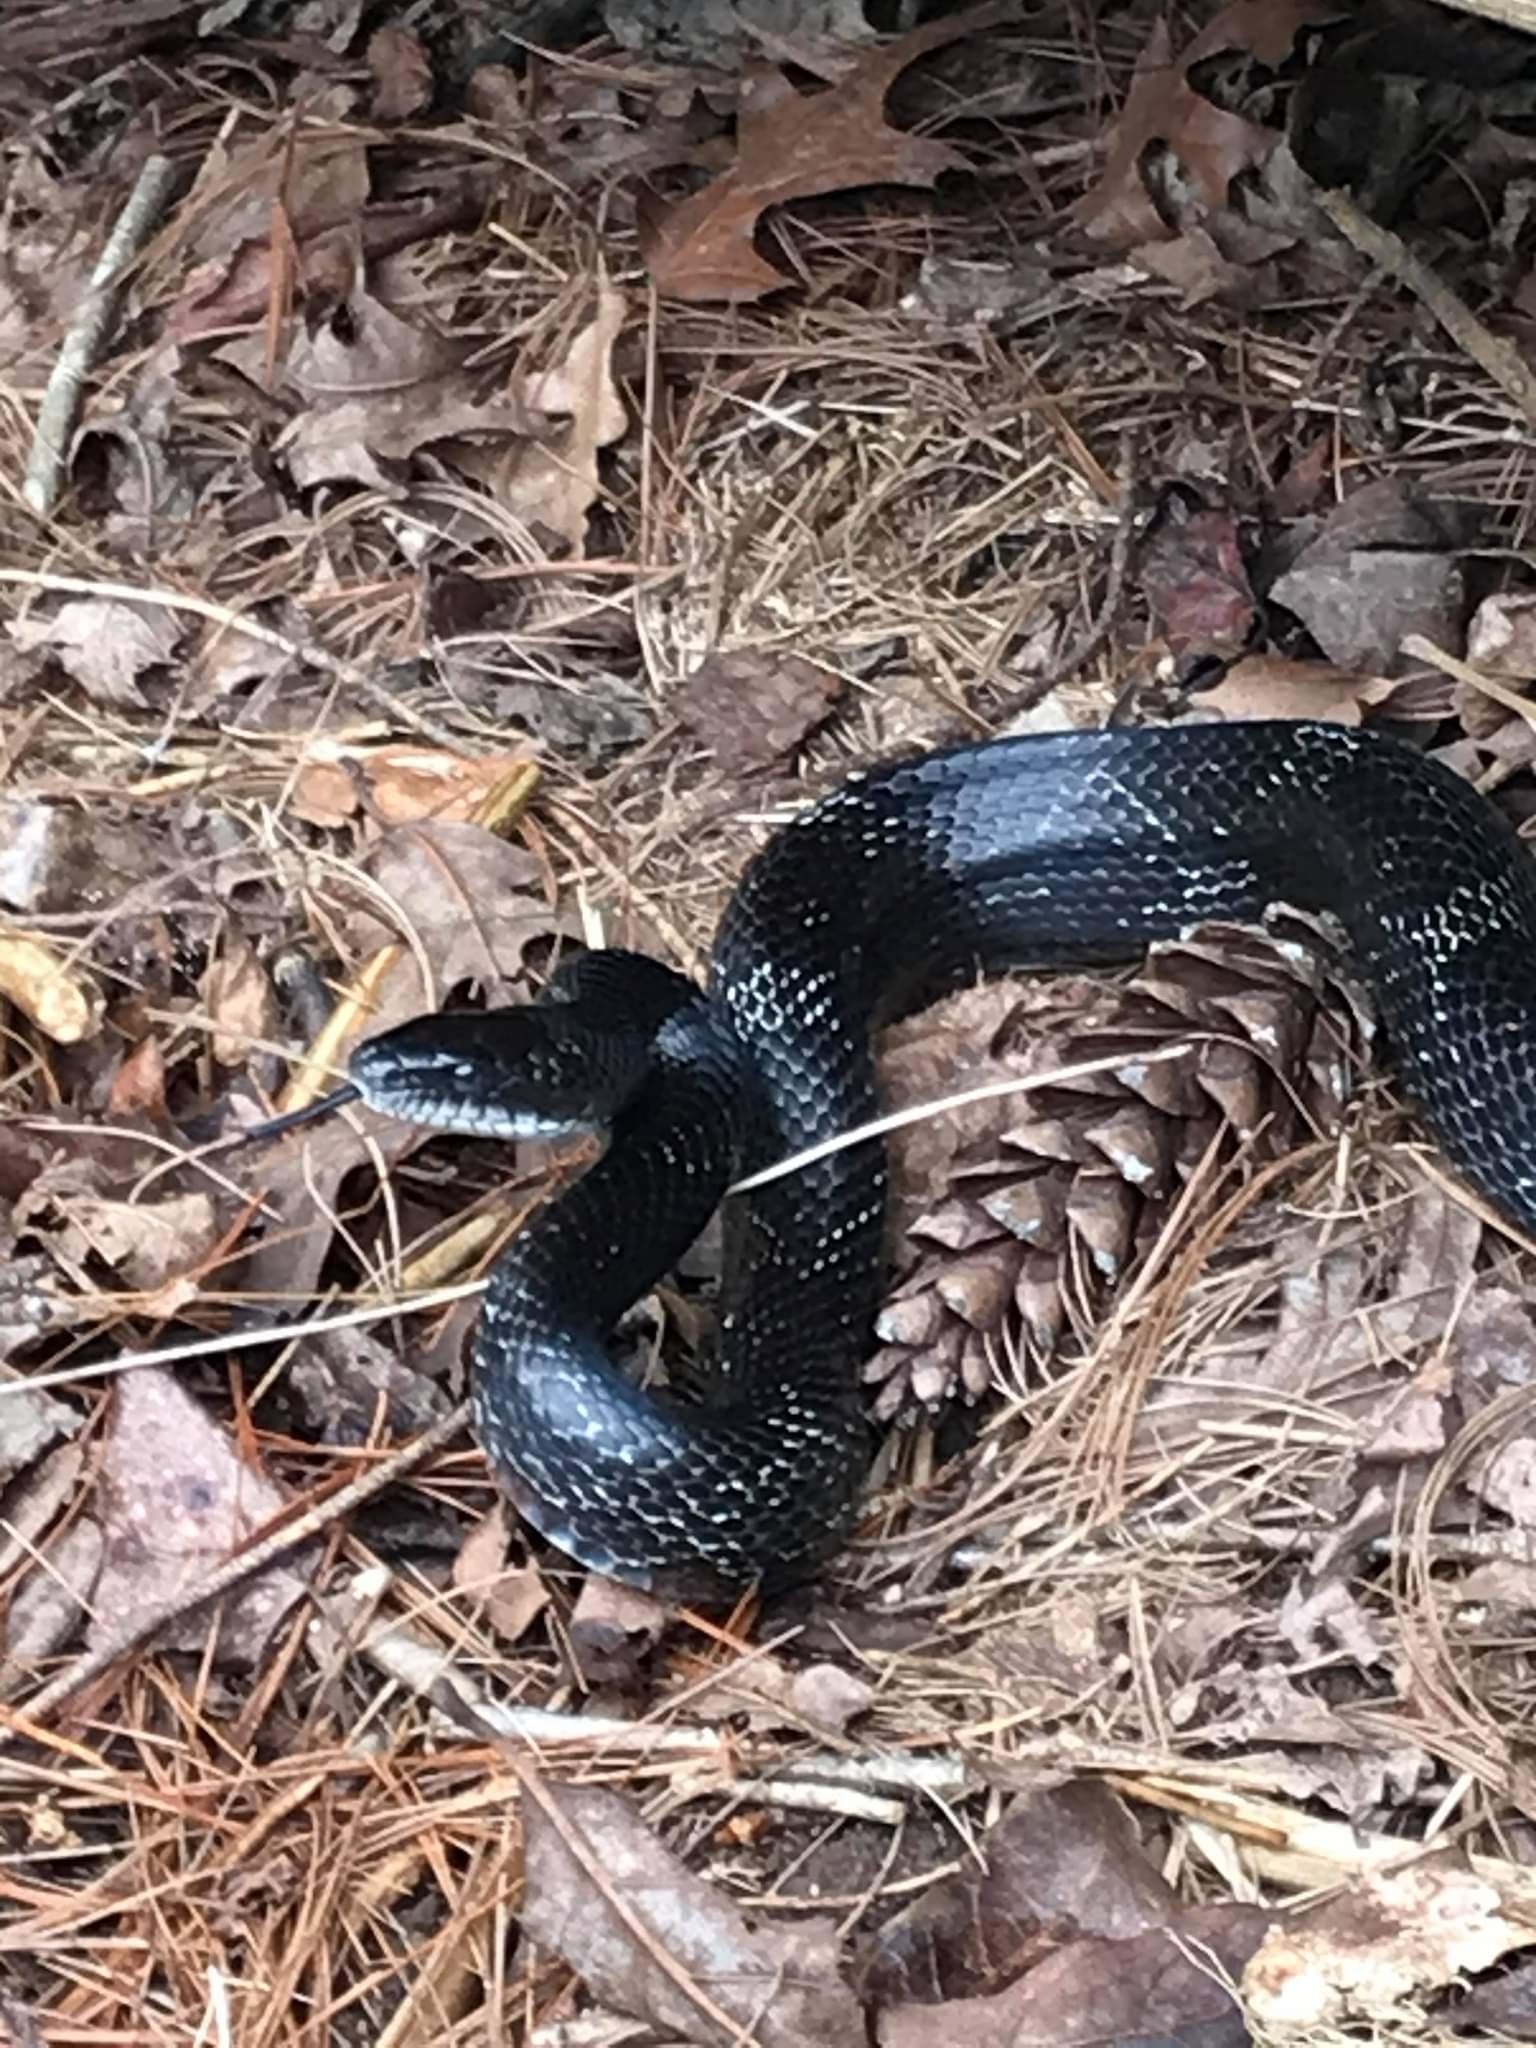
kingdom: Animalia
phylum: Chordata
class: Squamata
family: Colubridae
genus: Pantherophis
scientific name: Pantherophis alleghaniensis
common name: Eastern rat snake
